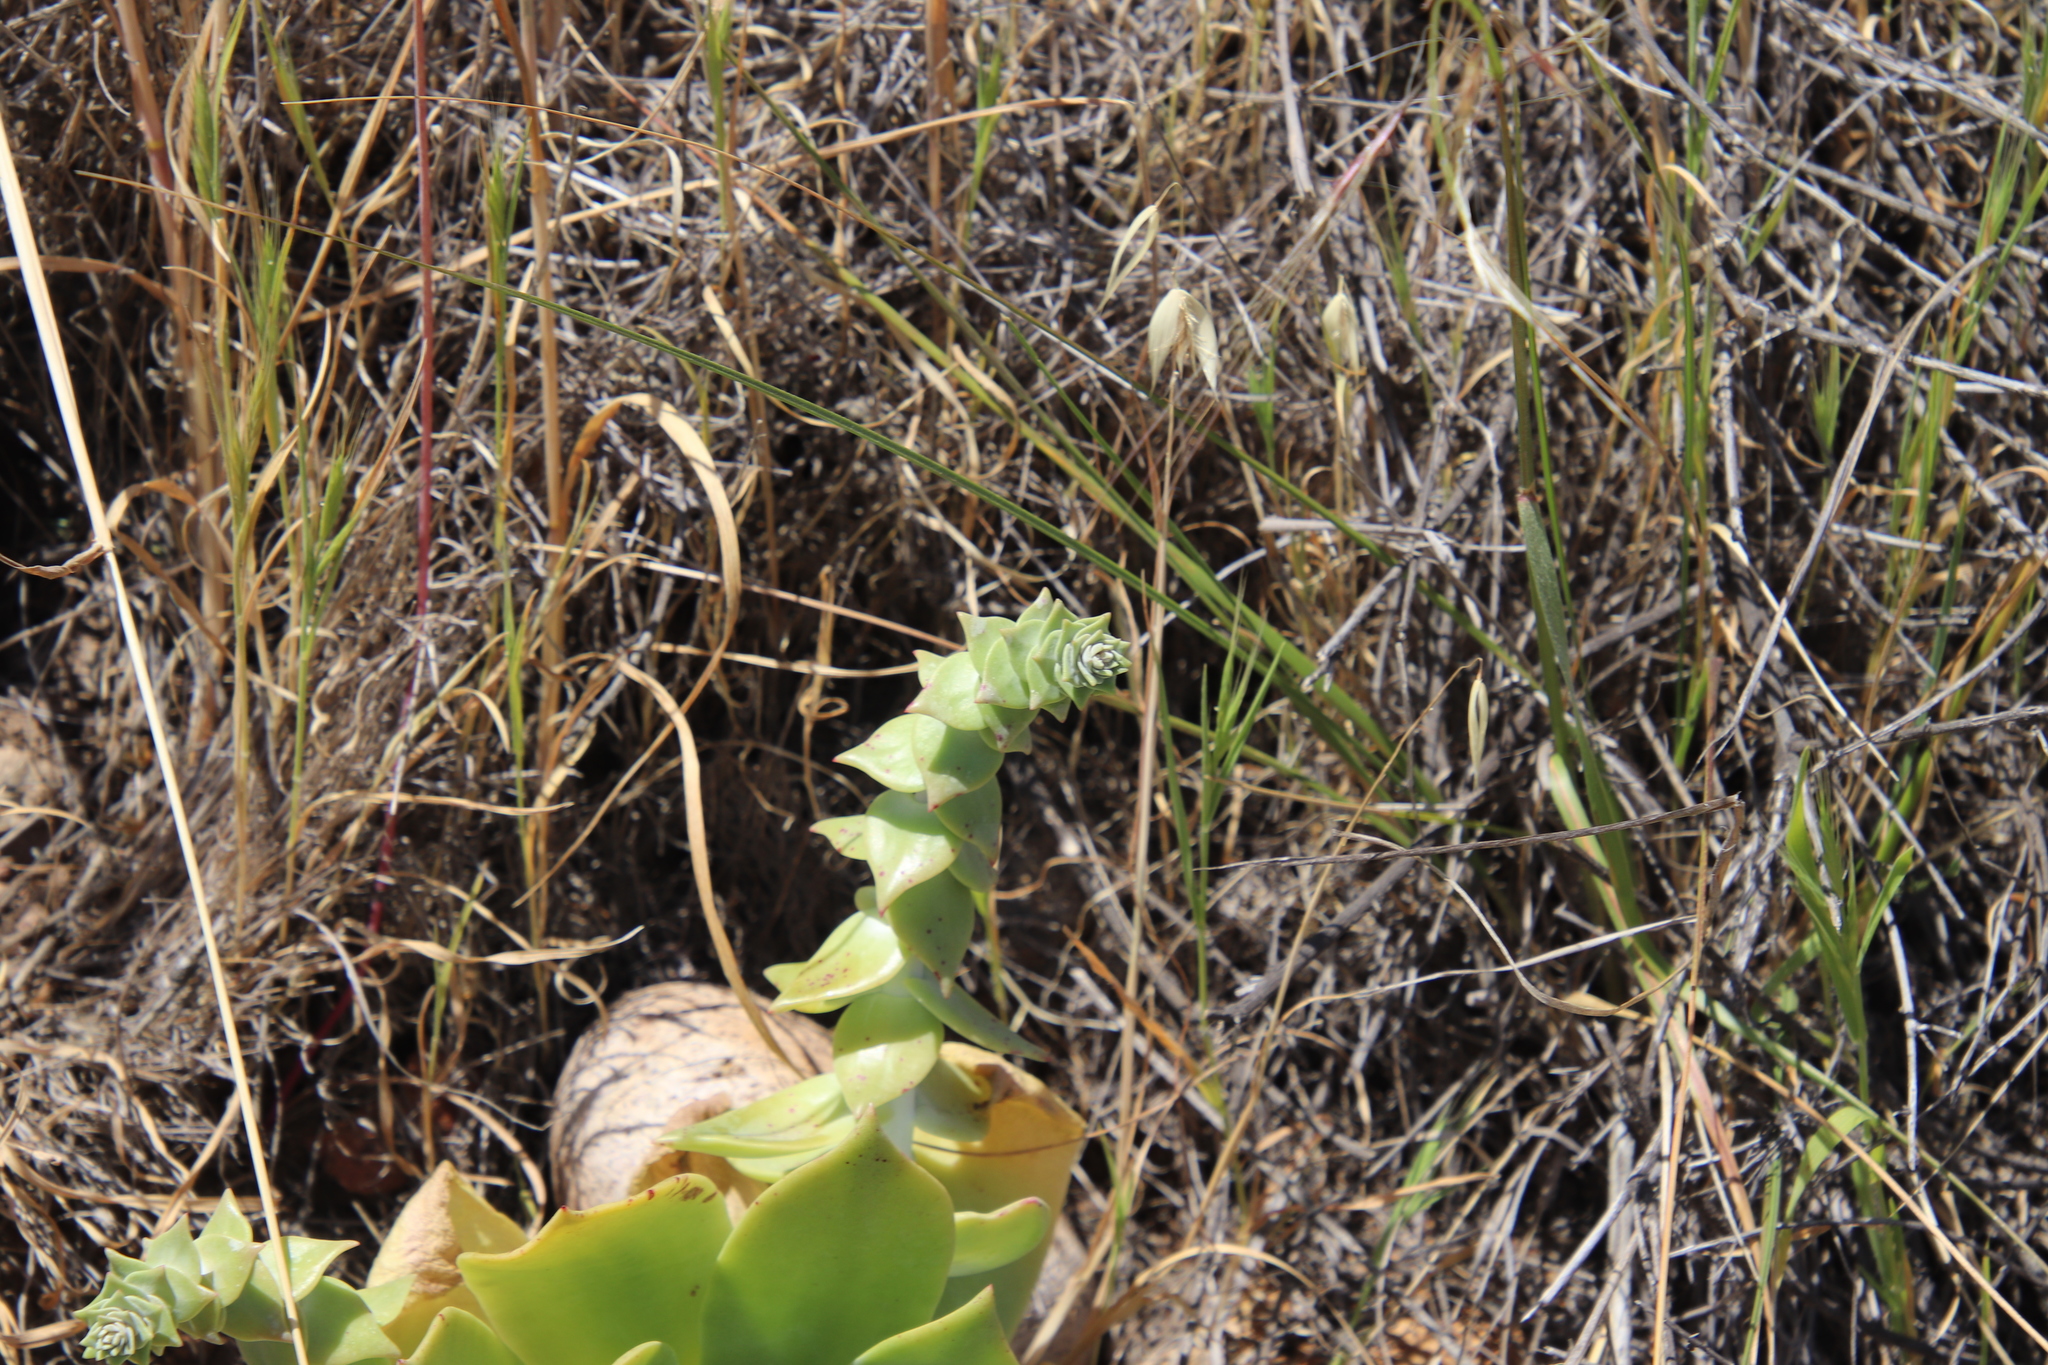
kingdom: Plantae
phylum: Tracheophyta
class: Magnoliopsida
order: Saxifragales
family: Crassulaceae
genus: Dudleya
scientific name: Dudleya pulverulenta
